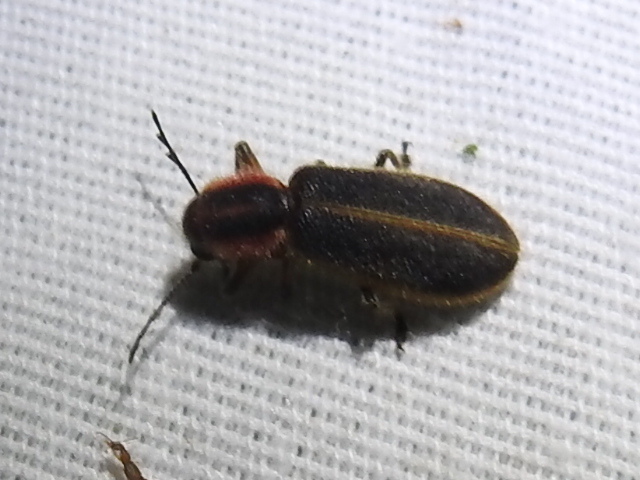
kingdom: Animalia
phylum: Arthropoda
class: Insecta
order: Coleoptera
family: Cleridae
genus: Chariessa
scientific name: Chariessa pilosa
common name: Pilose checkered beetle
